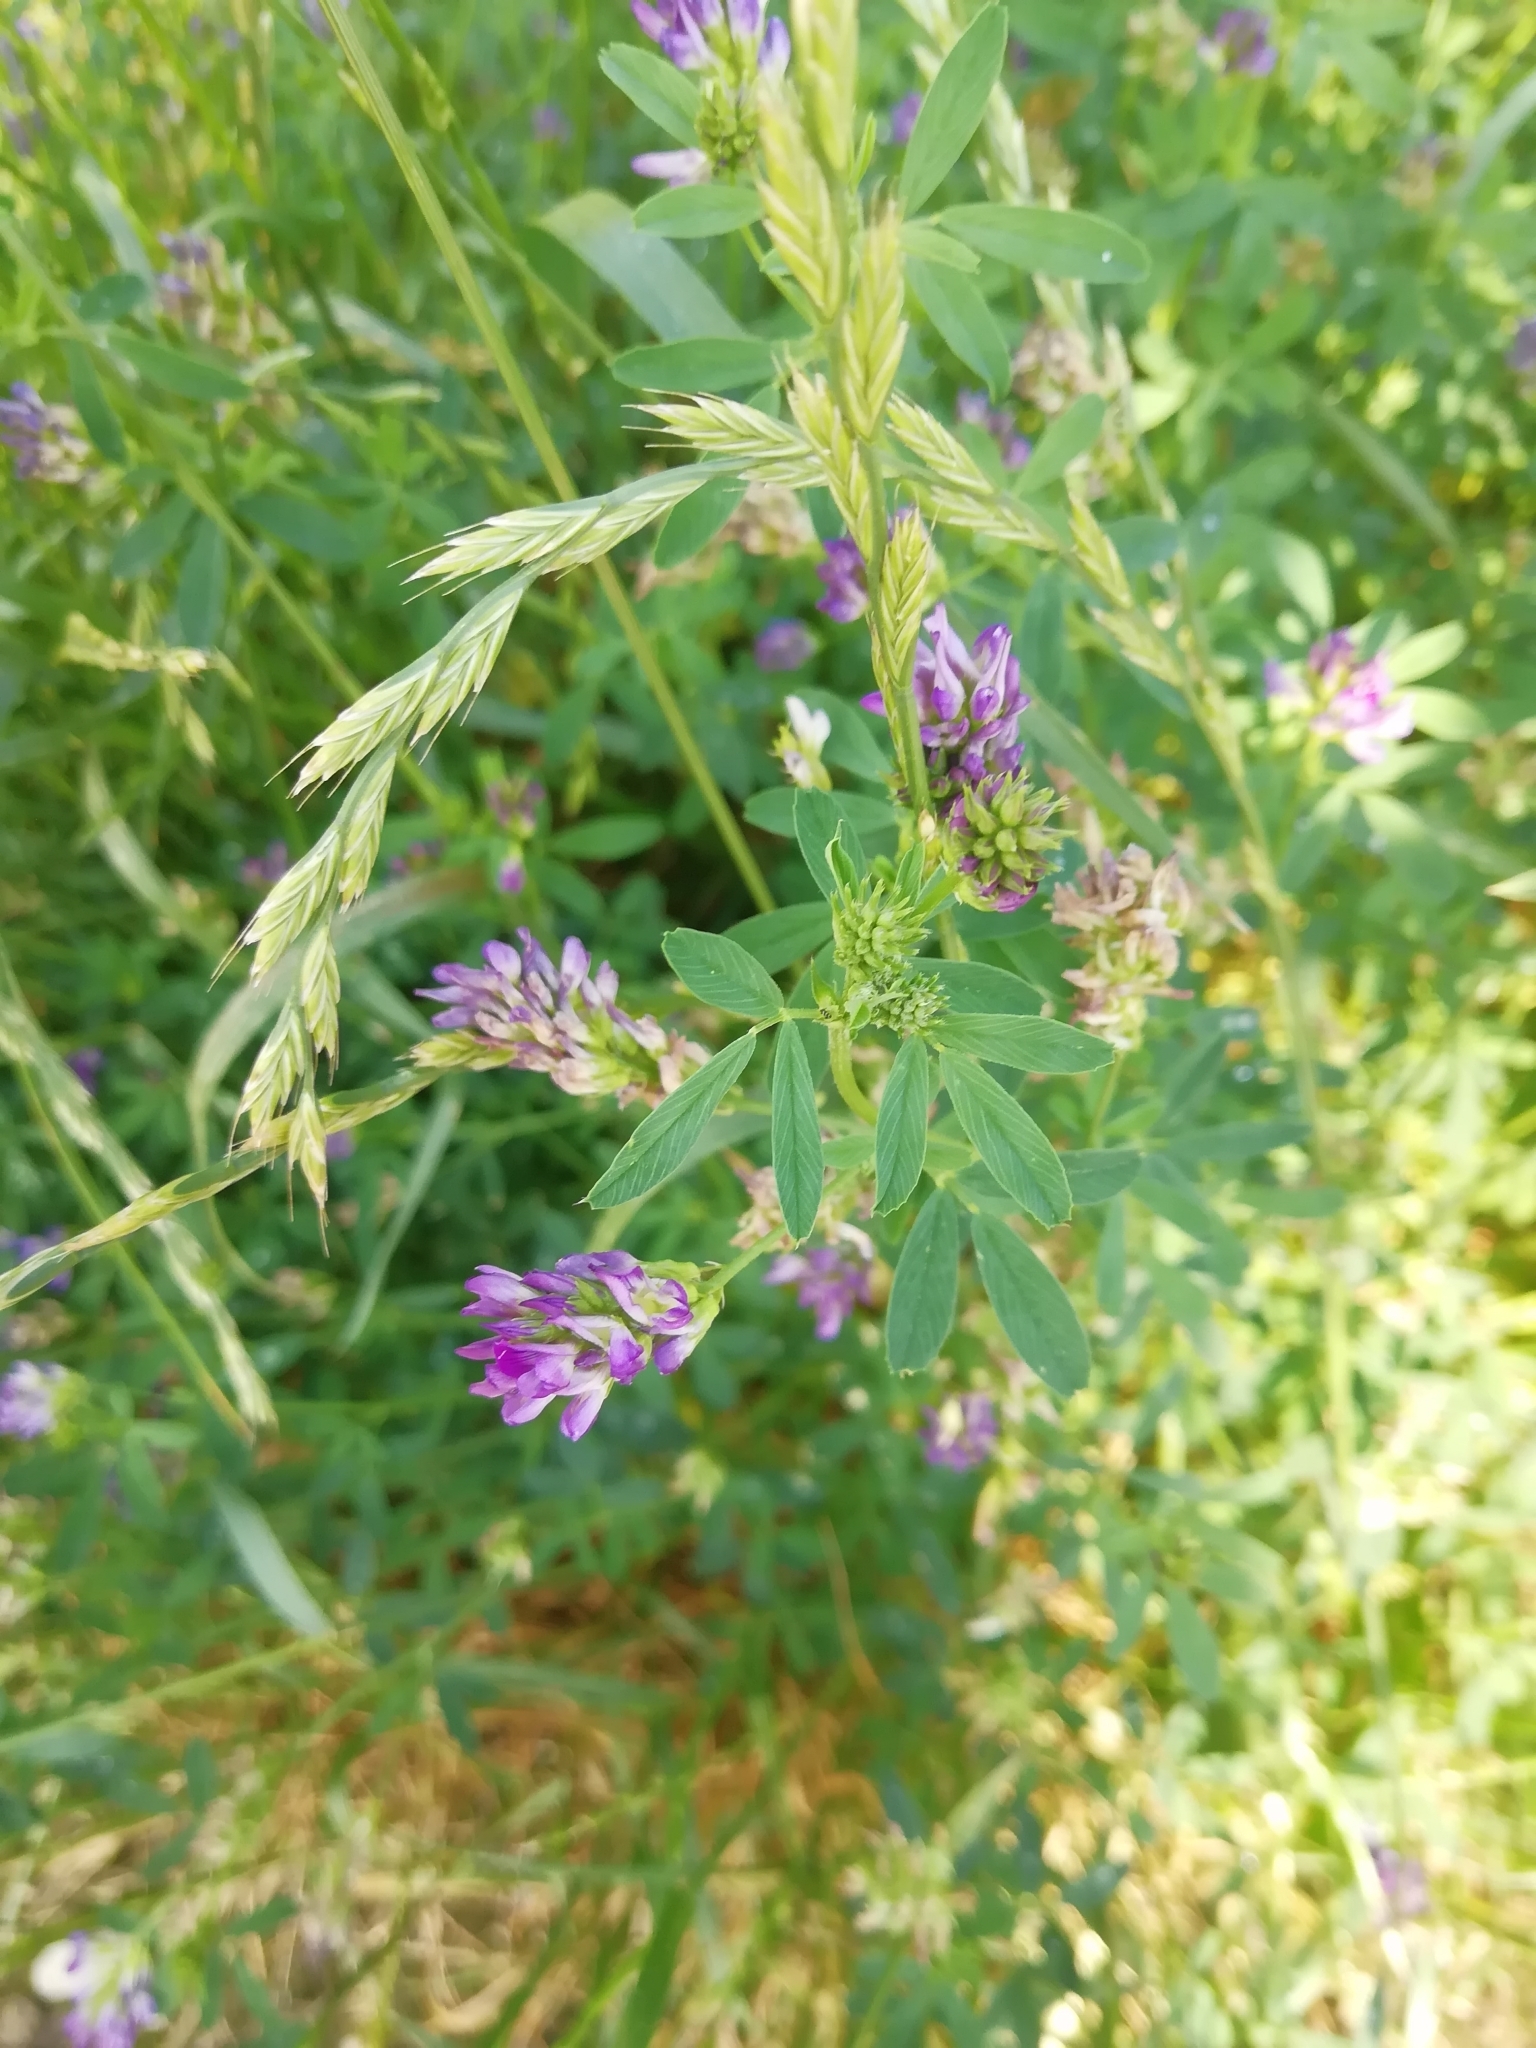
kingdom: Plantae
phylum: Tracheophyta
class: Magnoliopsida
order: Fabales
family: Fabaceae
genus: Medicago
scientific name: Medicago sativa
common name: Alfalfa
